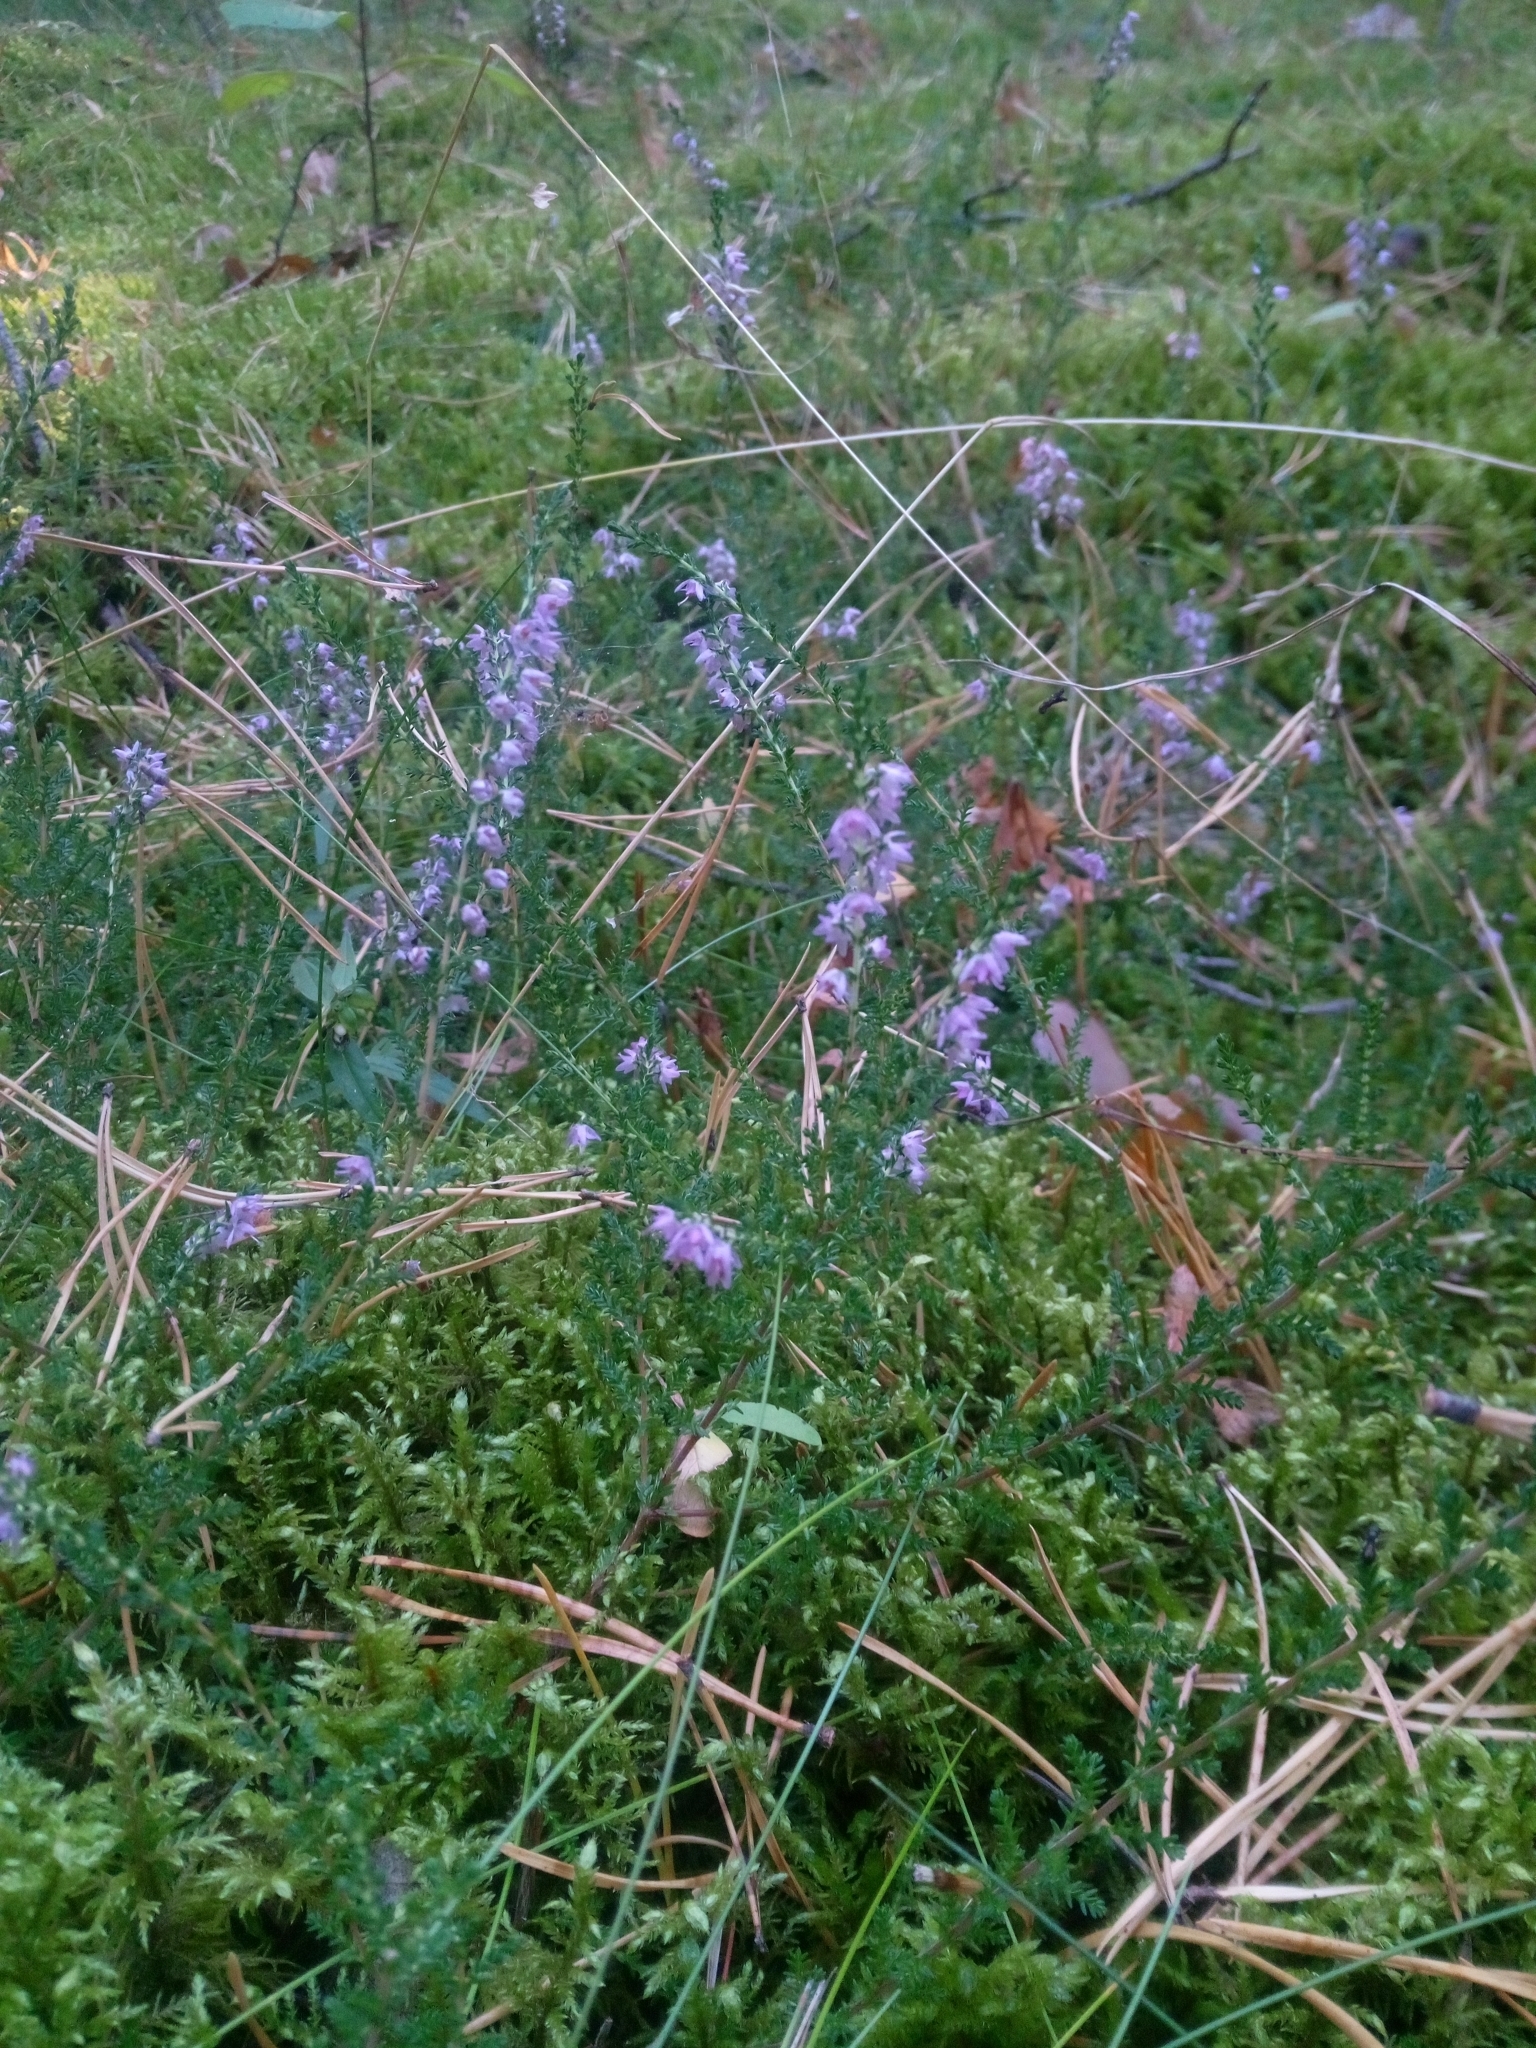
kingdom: Plantae
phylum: Tracheophyta
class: Magnoliopsida
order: Ericales
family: Ericaceae
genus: Calluna
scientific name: Calluna vulgaris
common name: Heather
